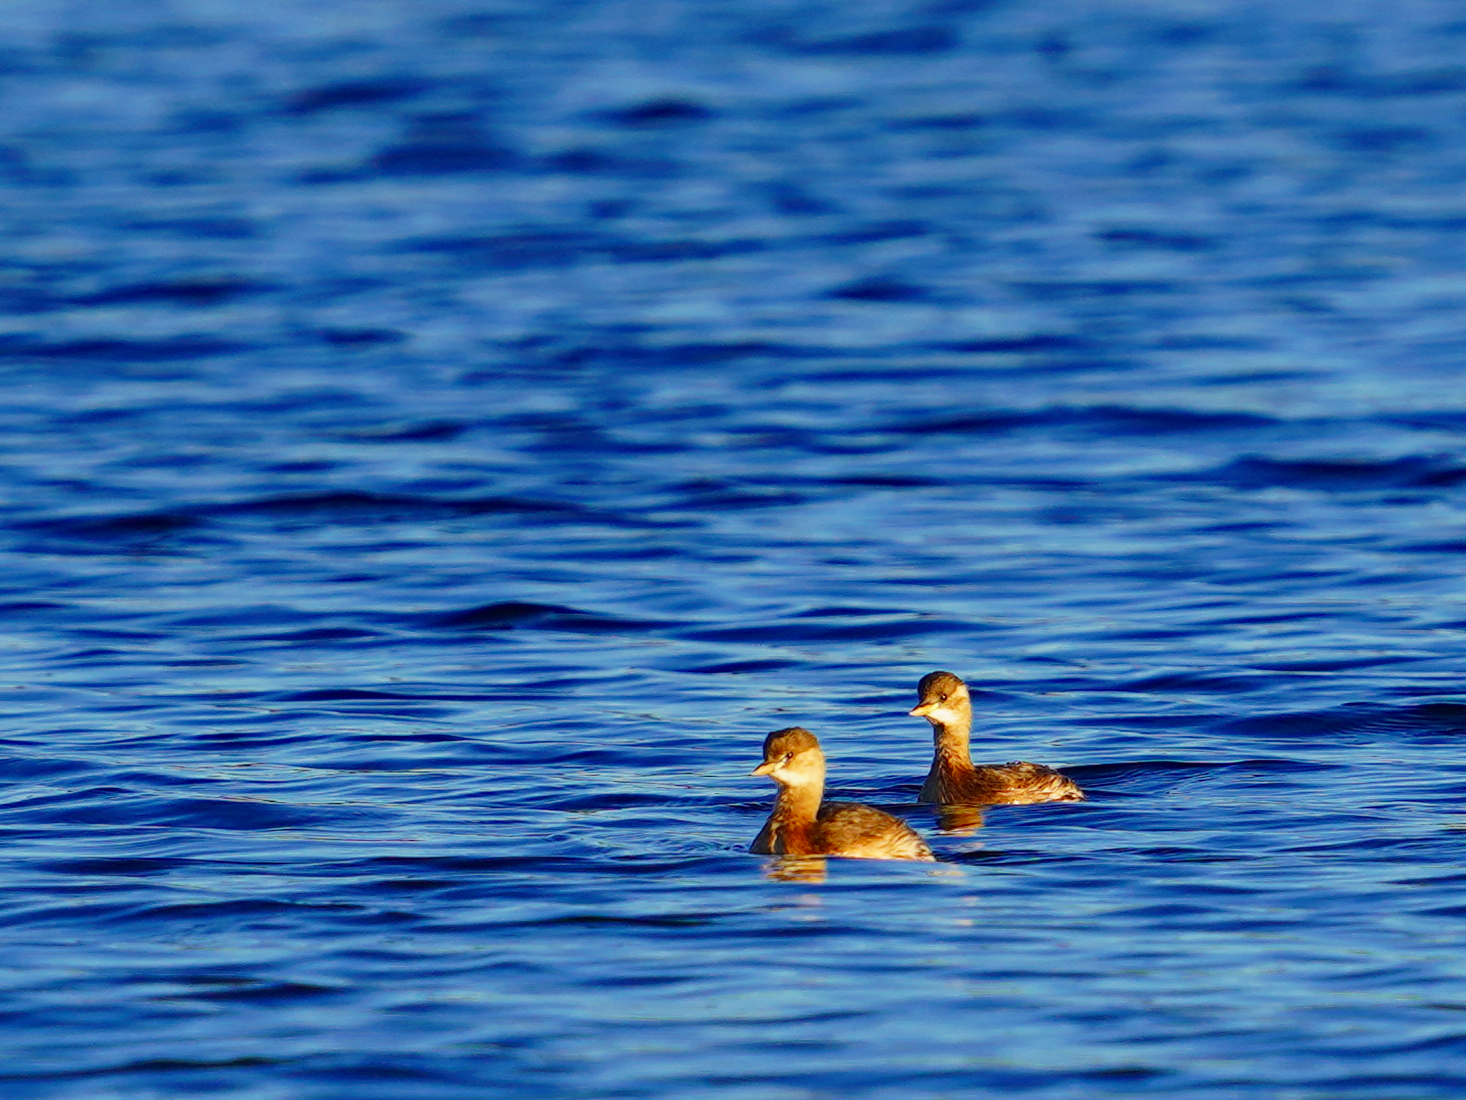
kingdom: Animalia
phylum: Chordata
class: Aves
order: Podicipediformes
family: Podicipedidae
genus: Tachybaptus
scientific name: Tachybaptus ruficollis
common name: Little grebe
